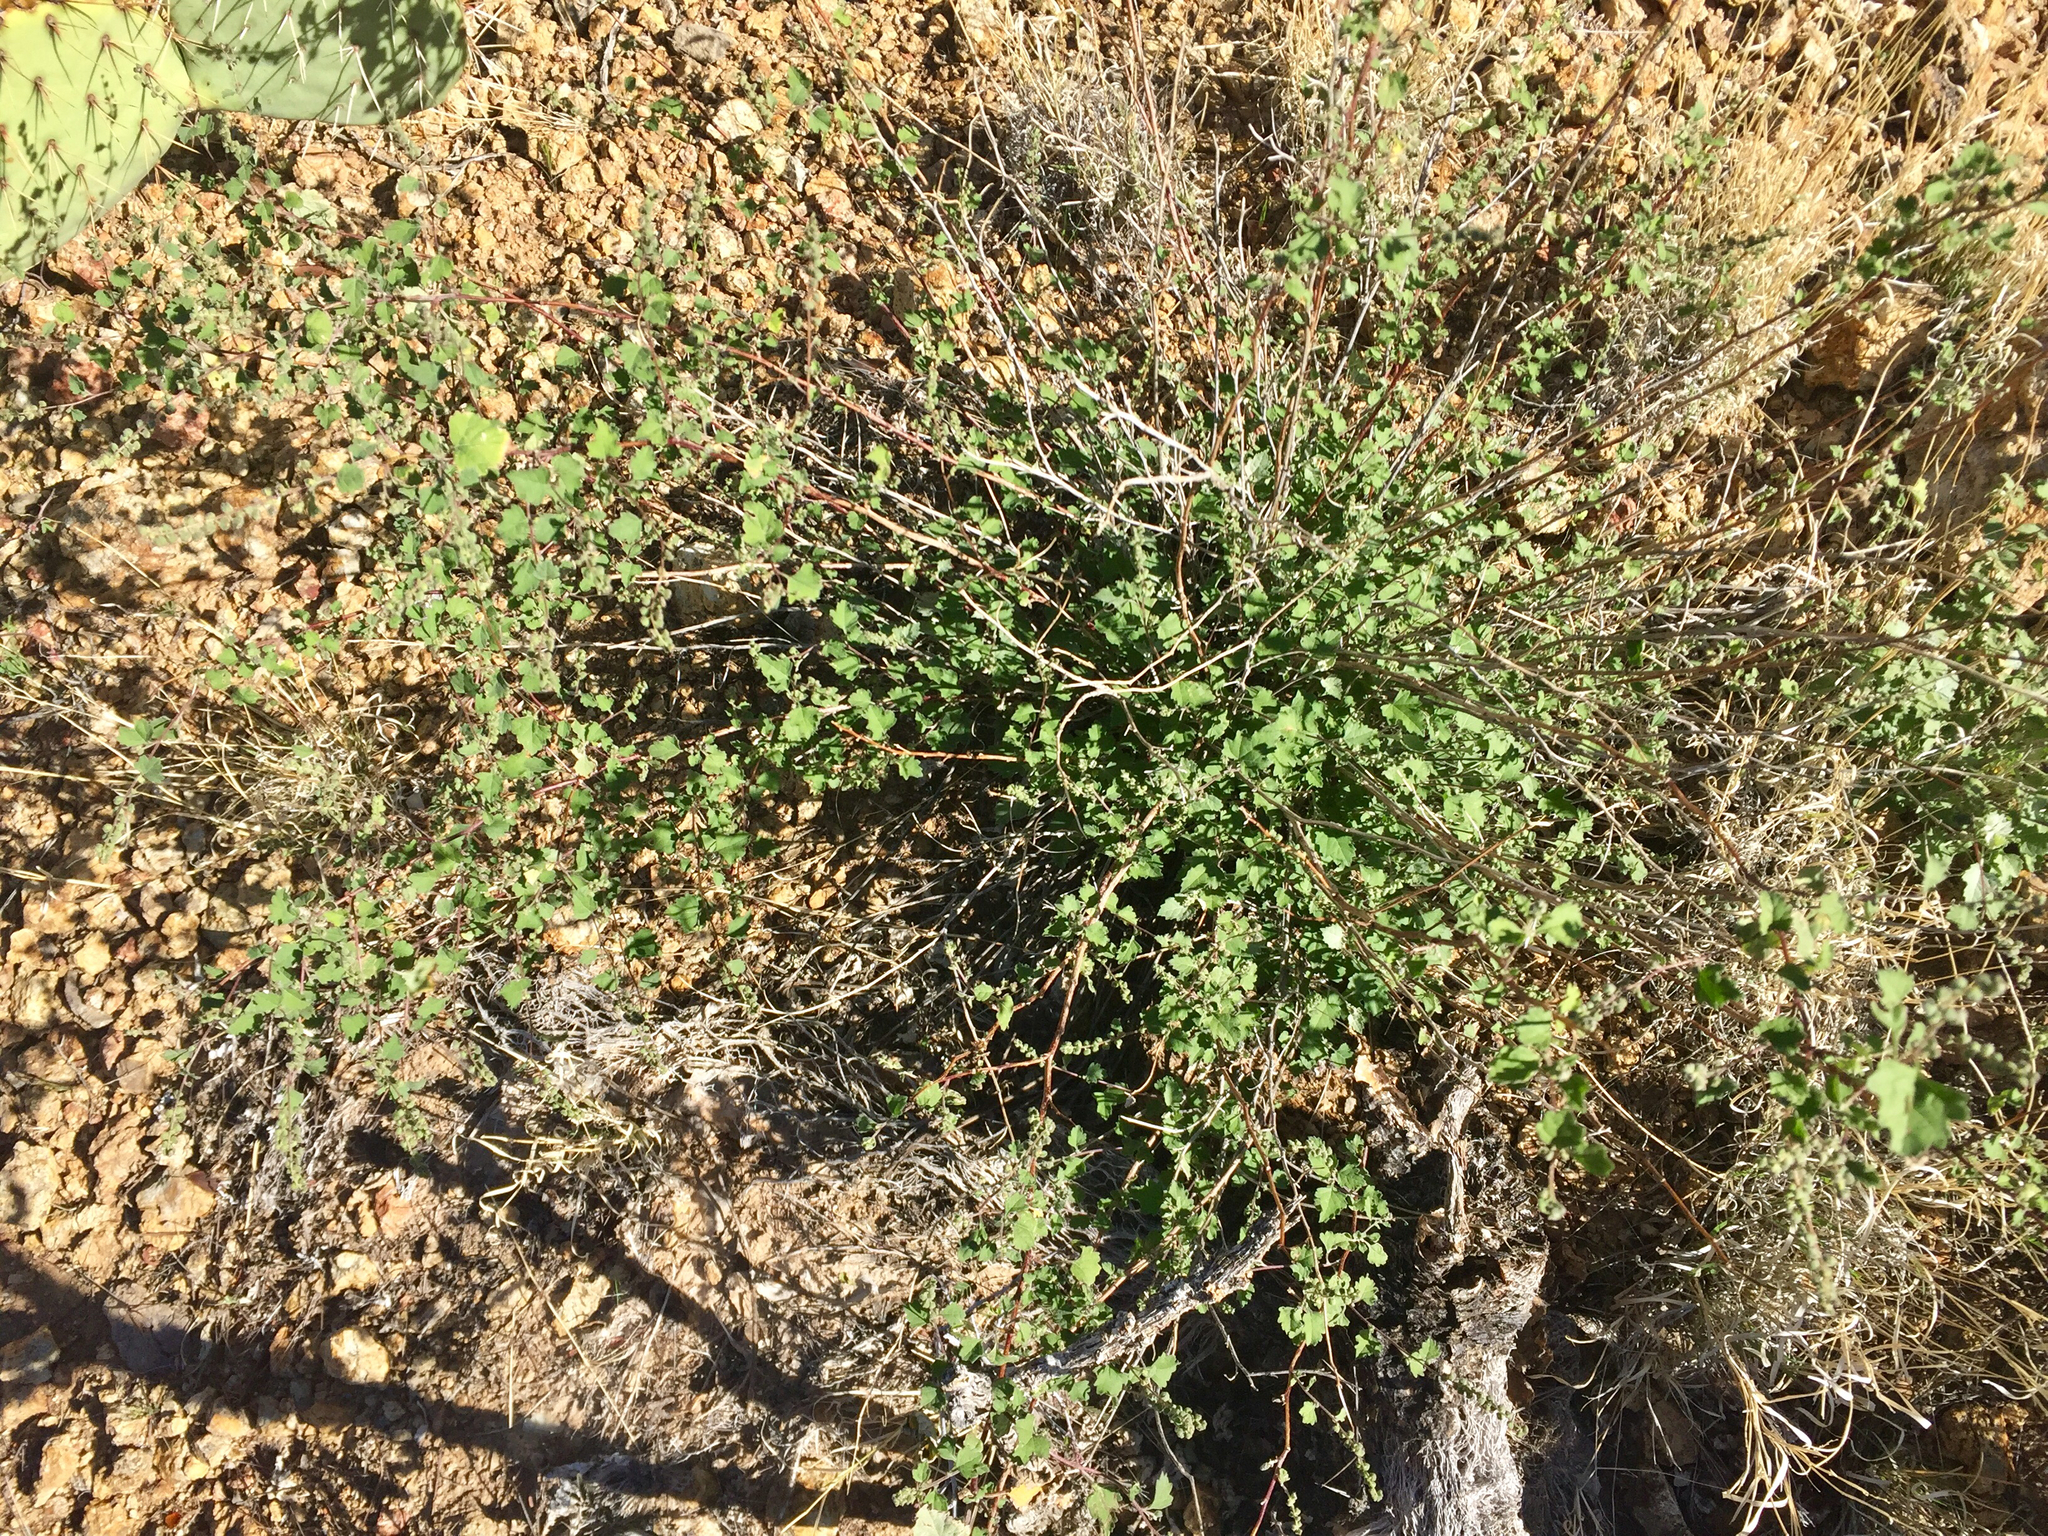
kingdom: Plantae
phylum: Tracheophyta
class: Magnoliopsida
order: Asterales
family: Asteraceae
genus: Brickellia
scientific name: Brickellia coulteri
